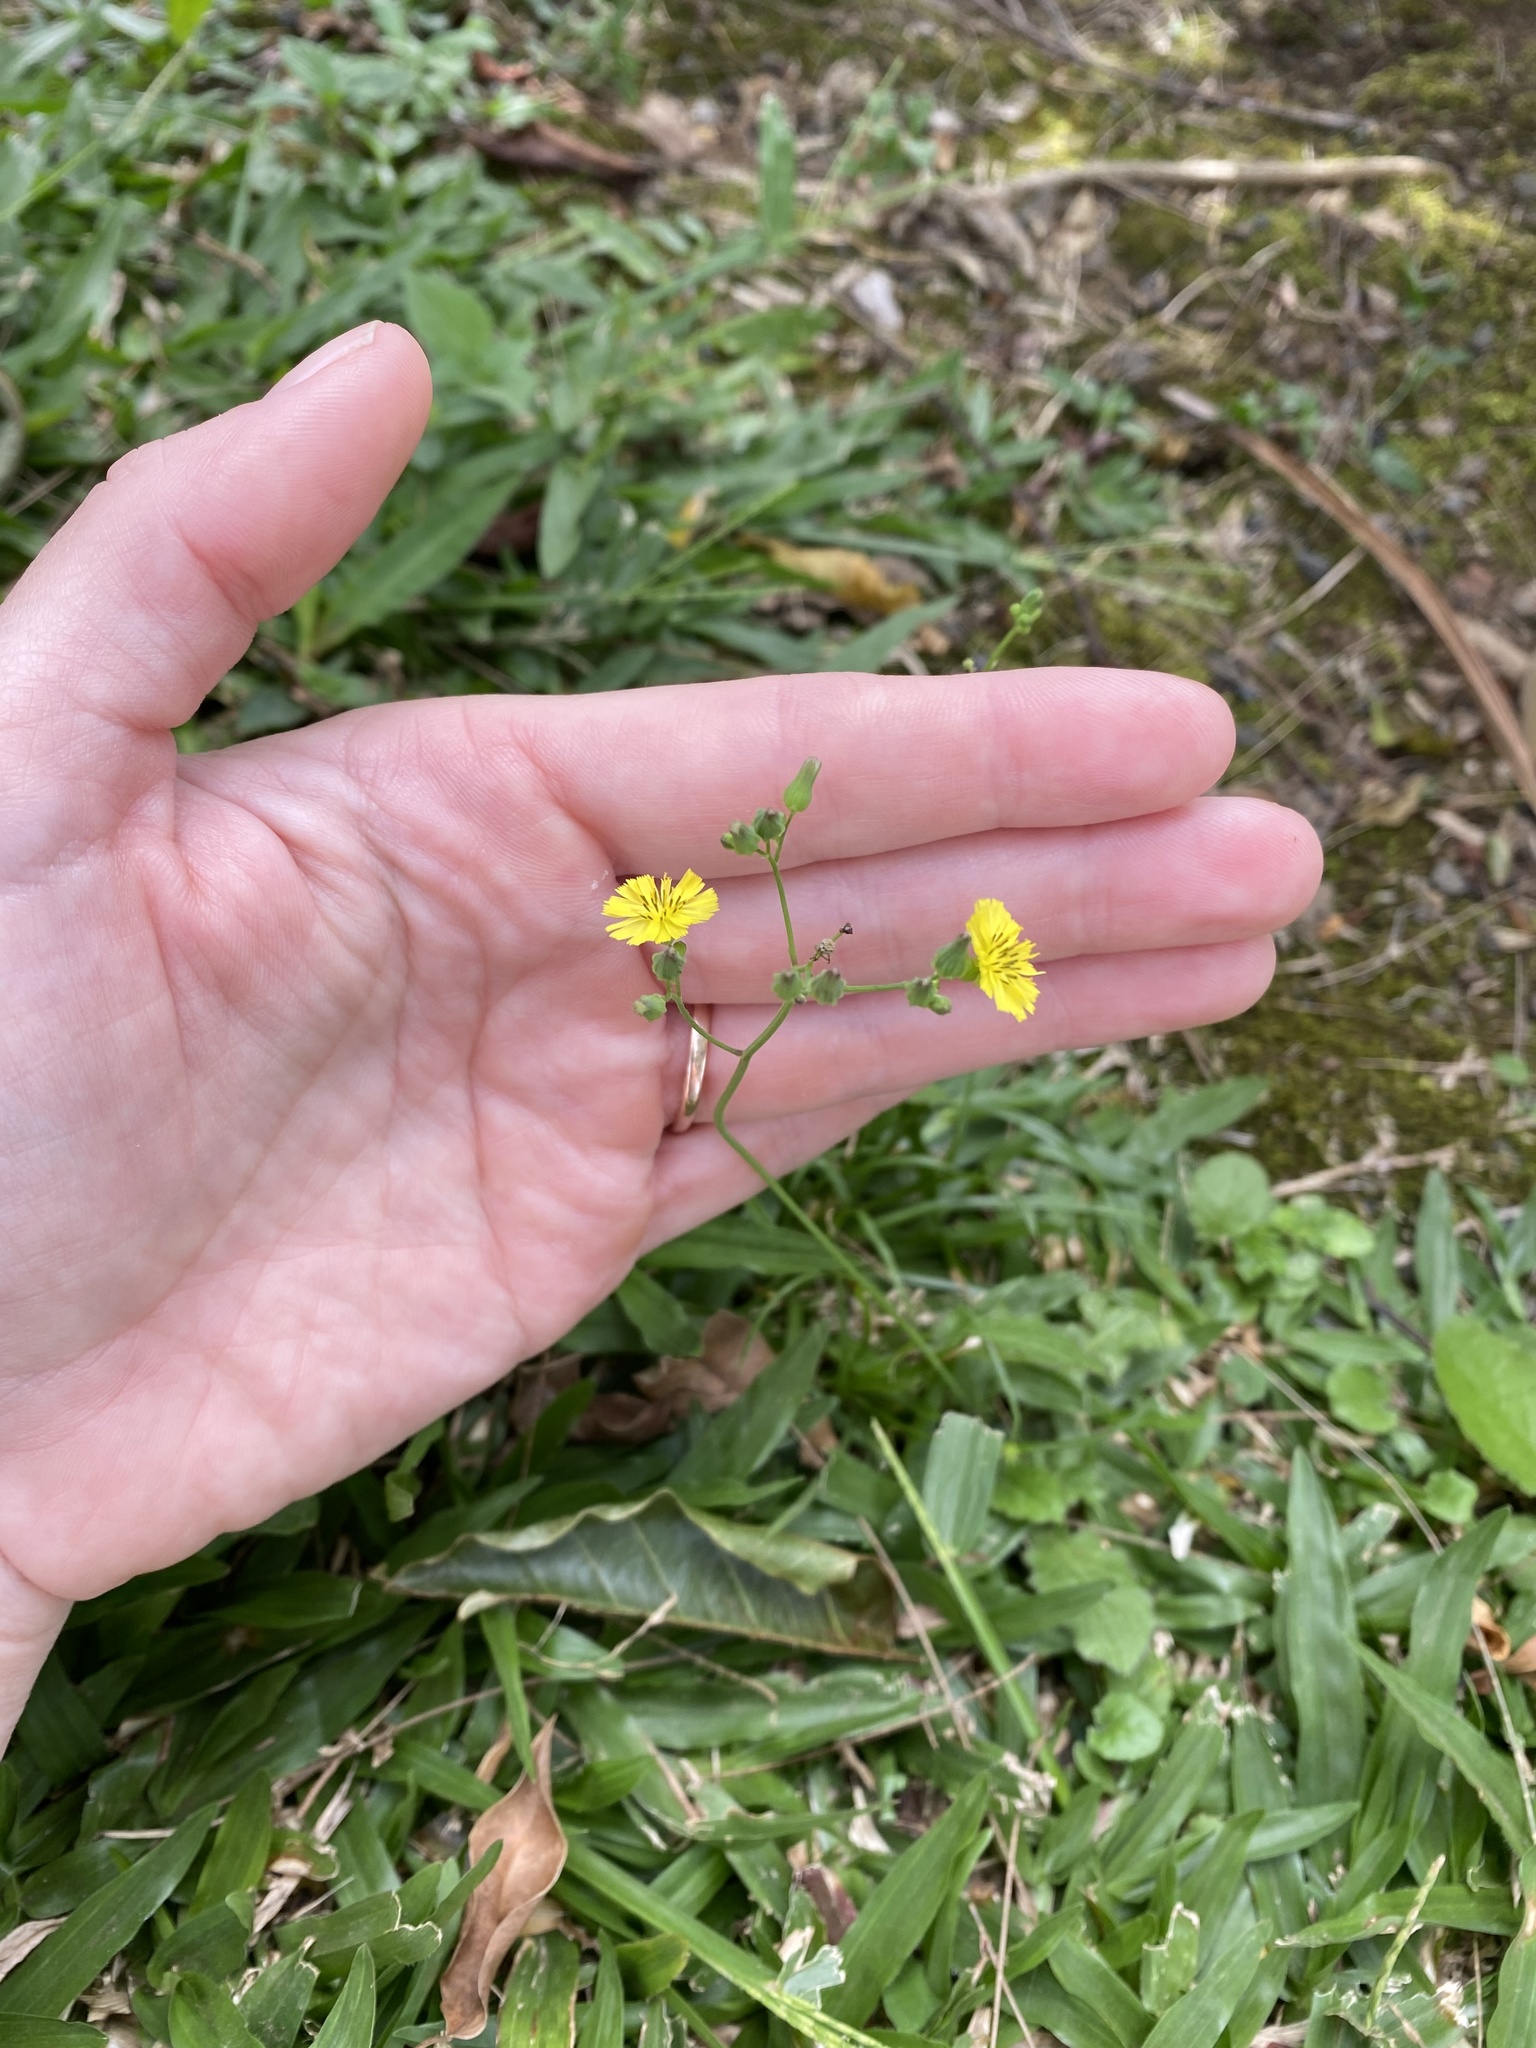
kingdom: Plantae
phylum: Tracheophyta
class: Magnoliopsida
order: Asterales
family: Asteraceae
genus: Youngia
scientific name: Youngia japonica
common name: Oriental false hawksbeard
